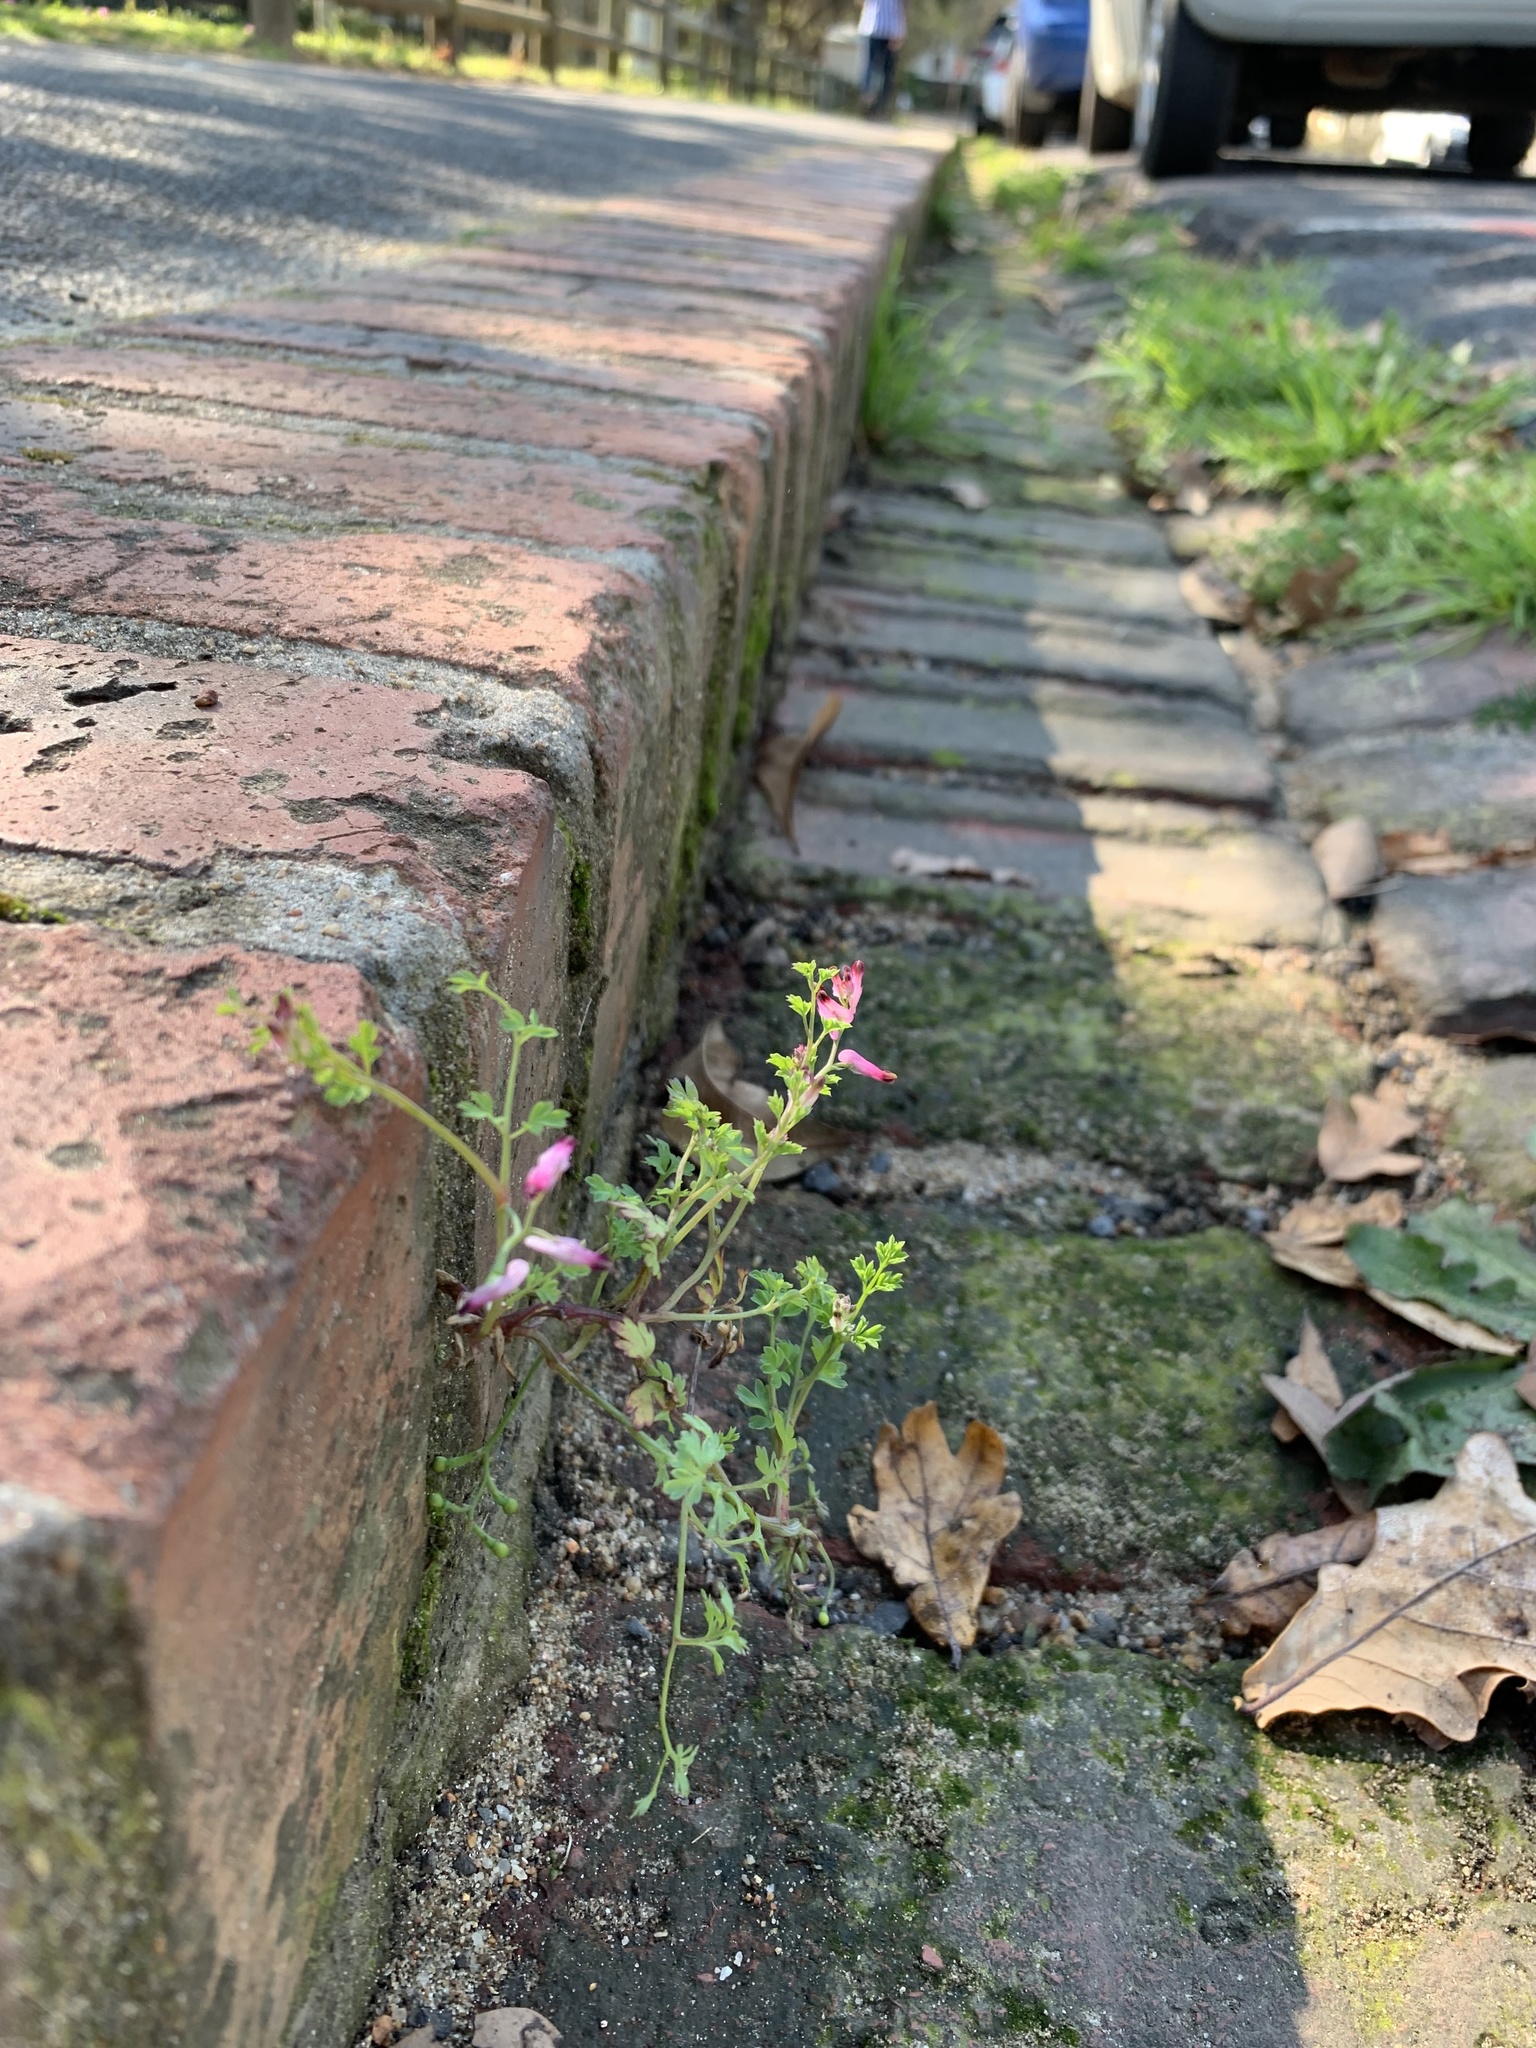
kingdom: Plantae
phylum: Tracheophyta
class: Magnoliopsida
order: Ranunculales
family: Papaveraceae
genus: Fumaria
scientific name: Fumaria muralis
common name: Common ramping-fumitory
